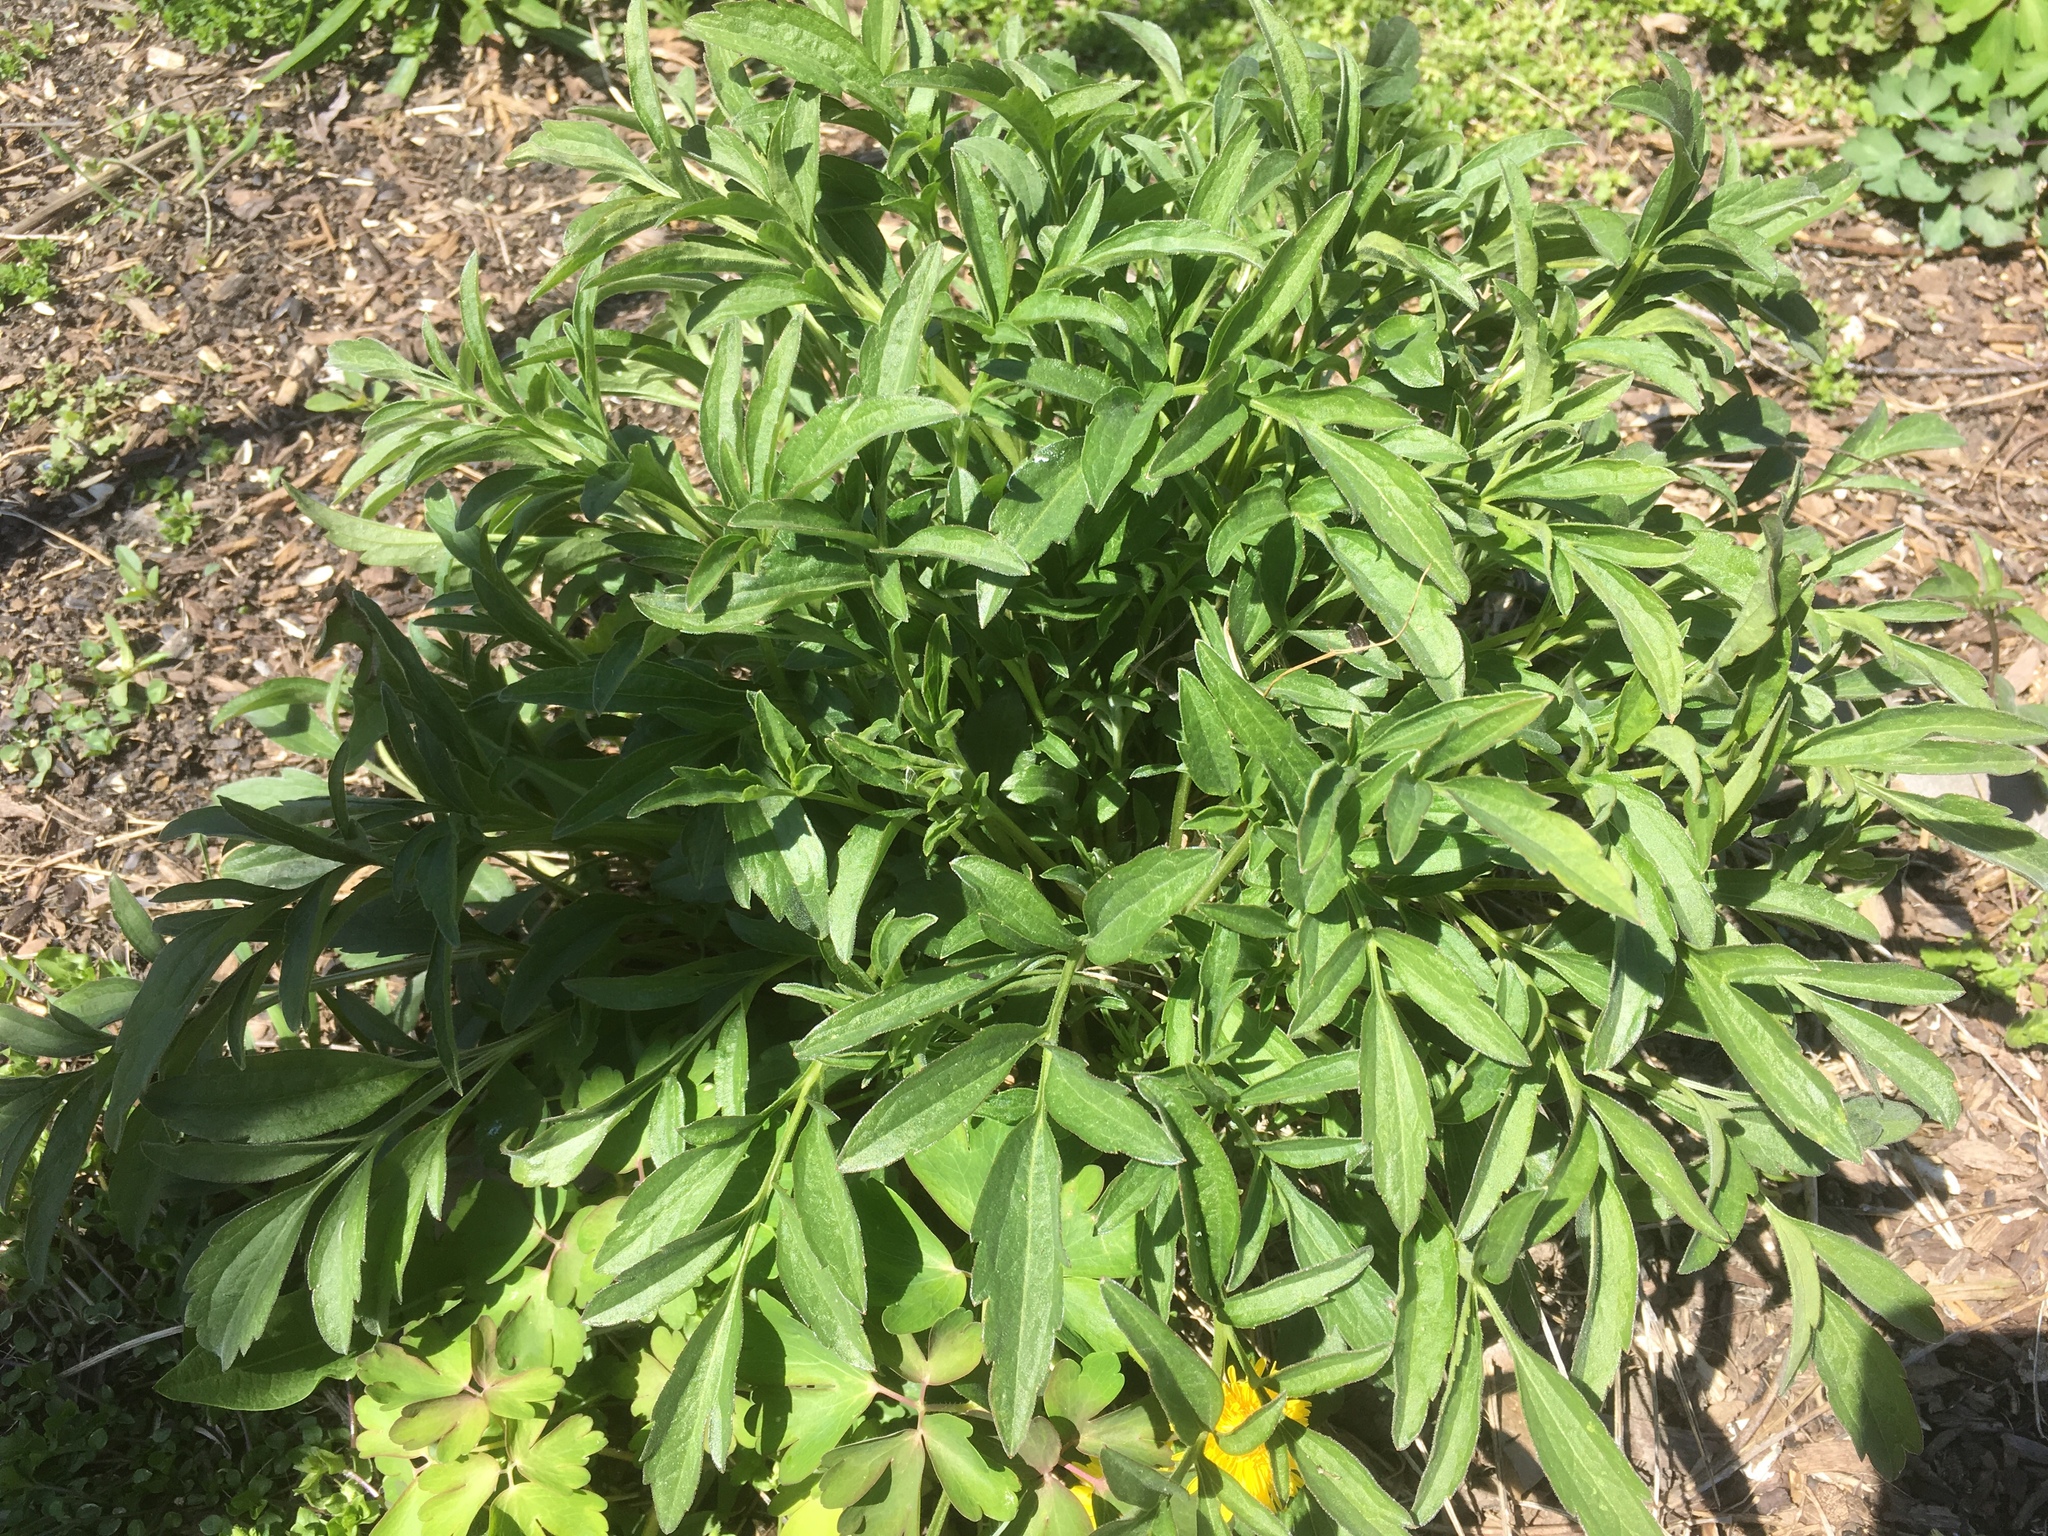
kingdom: Plantae
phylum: Tracheophyta
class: Magnoliopsida
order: Asterales
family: Asteraceae
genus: Ratibida
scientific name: Ratibida pinnata
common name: Drooping prairie-coneflower
